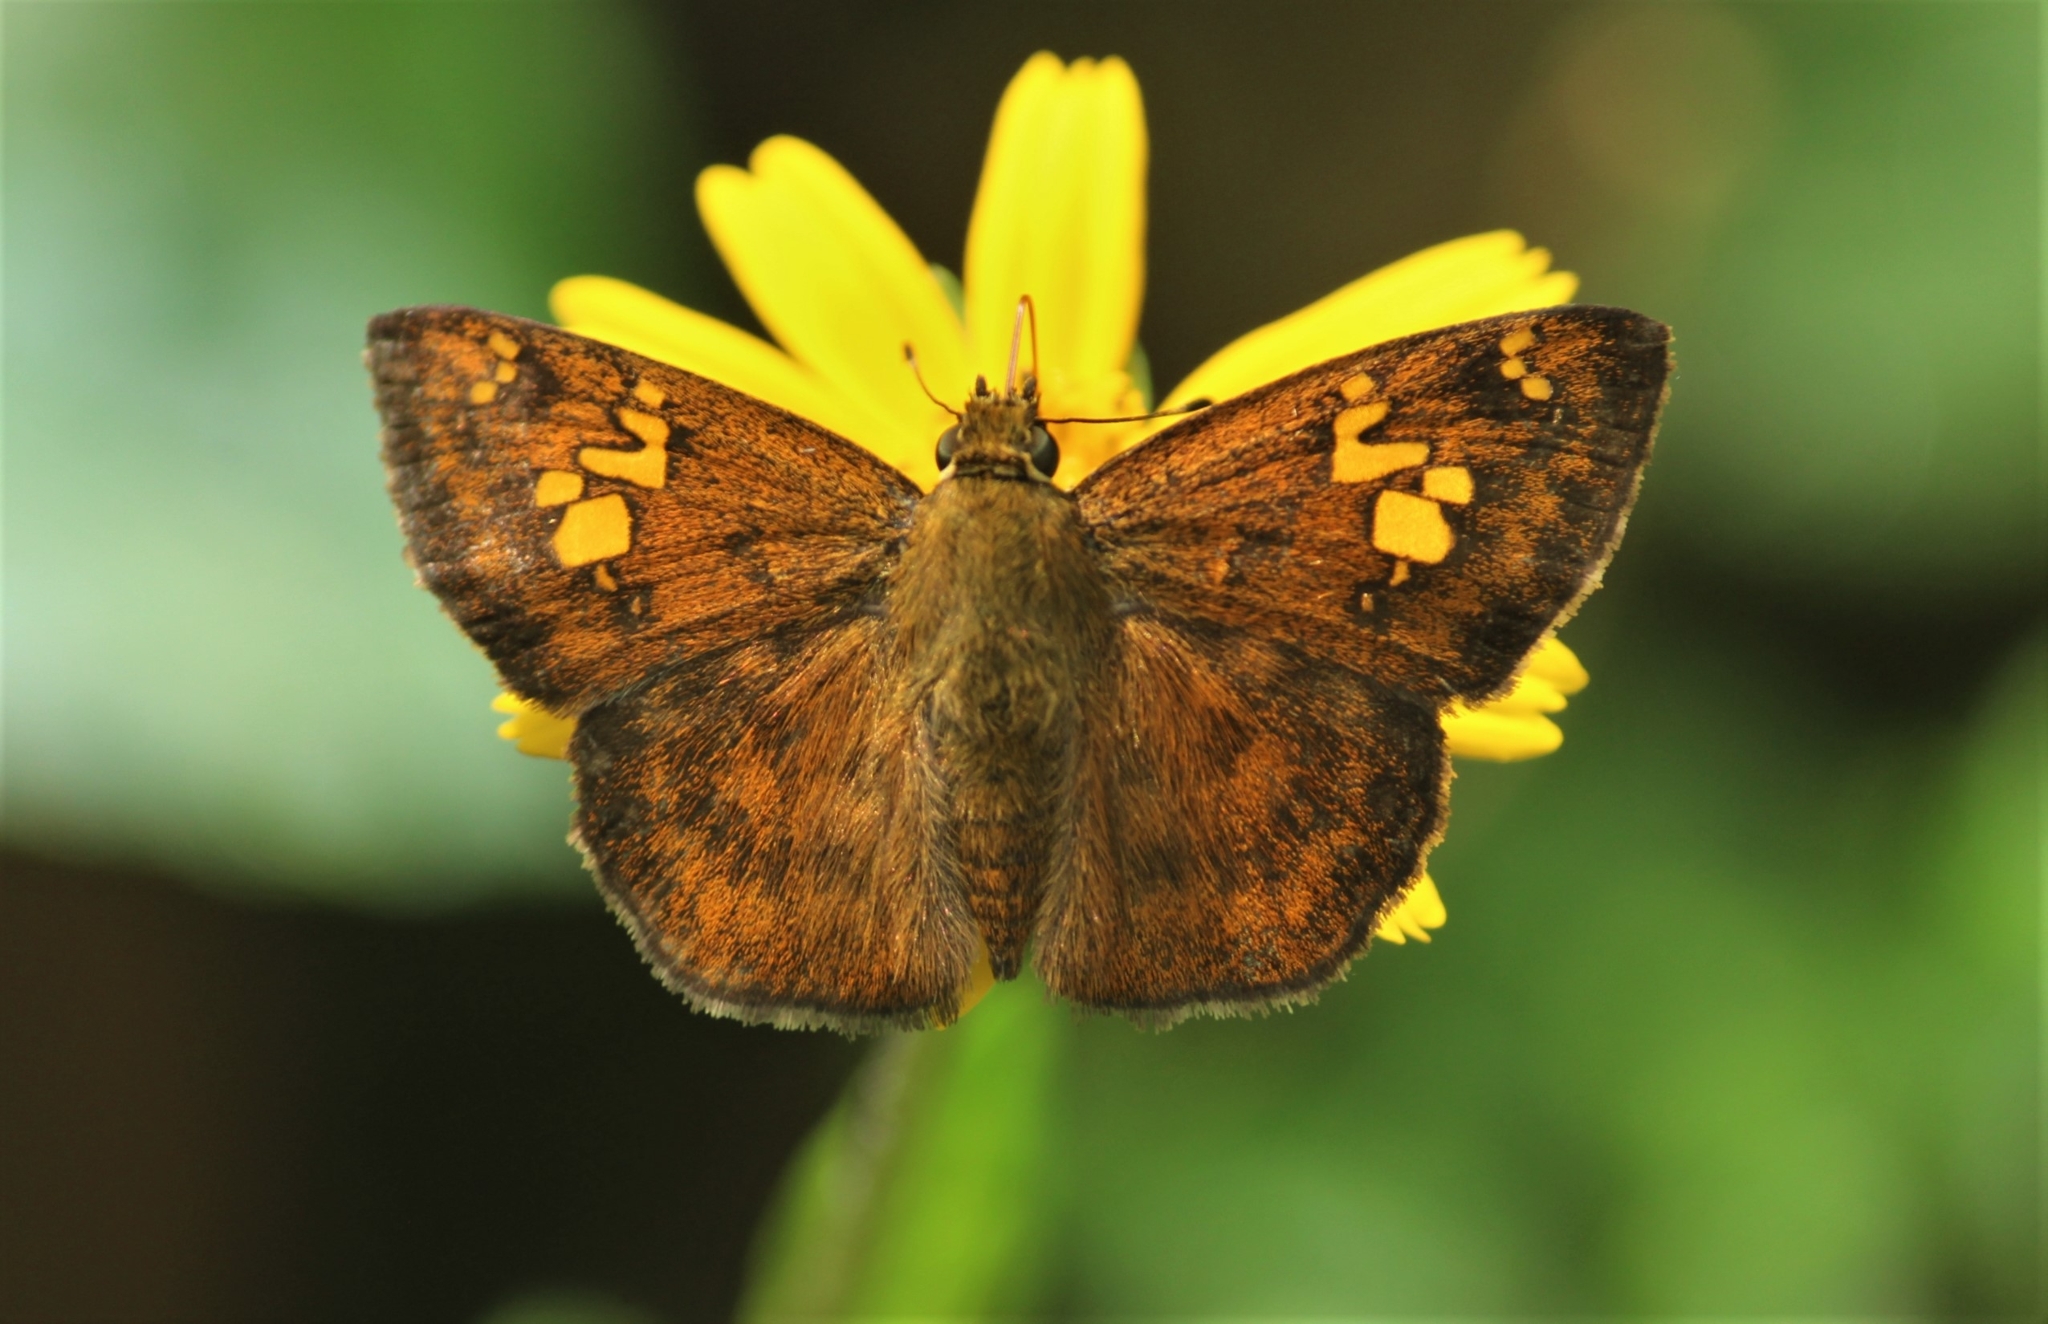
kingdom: Animalia
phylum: Arthropoda
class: Insecta
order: Lepidoptera
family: Hesperiidae
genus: Pseudocoladenia
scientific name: Pseudocoladenia dan
